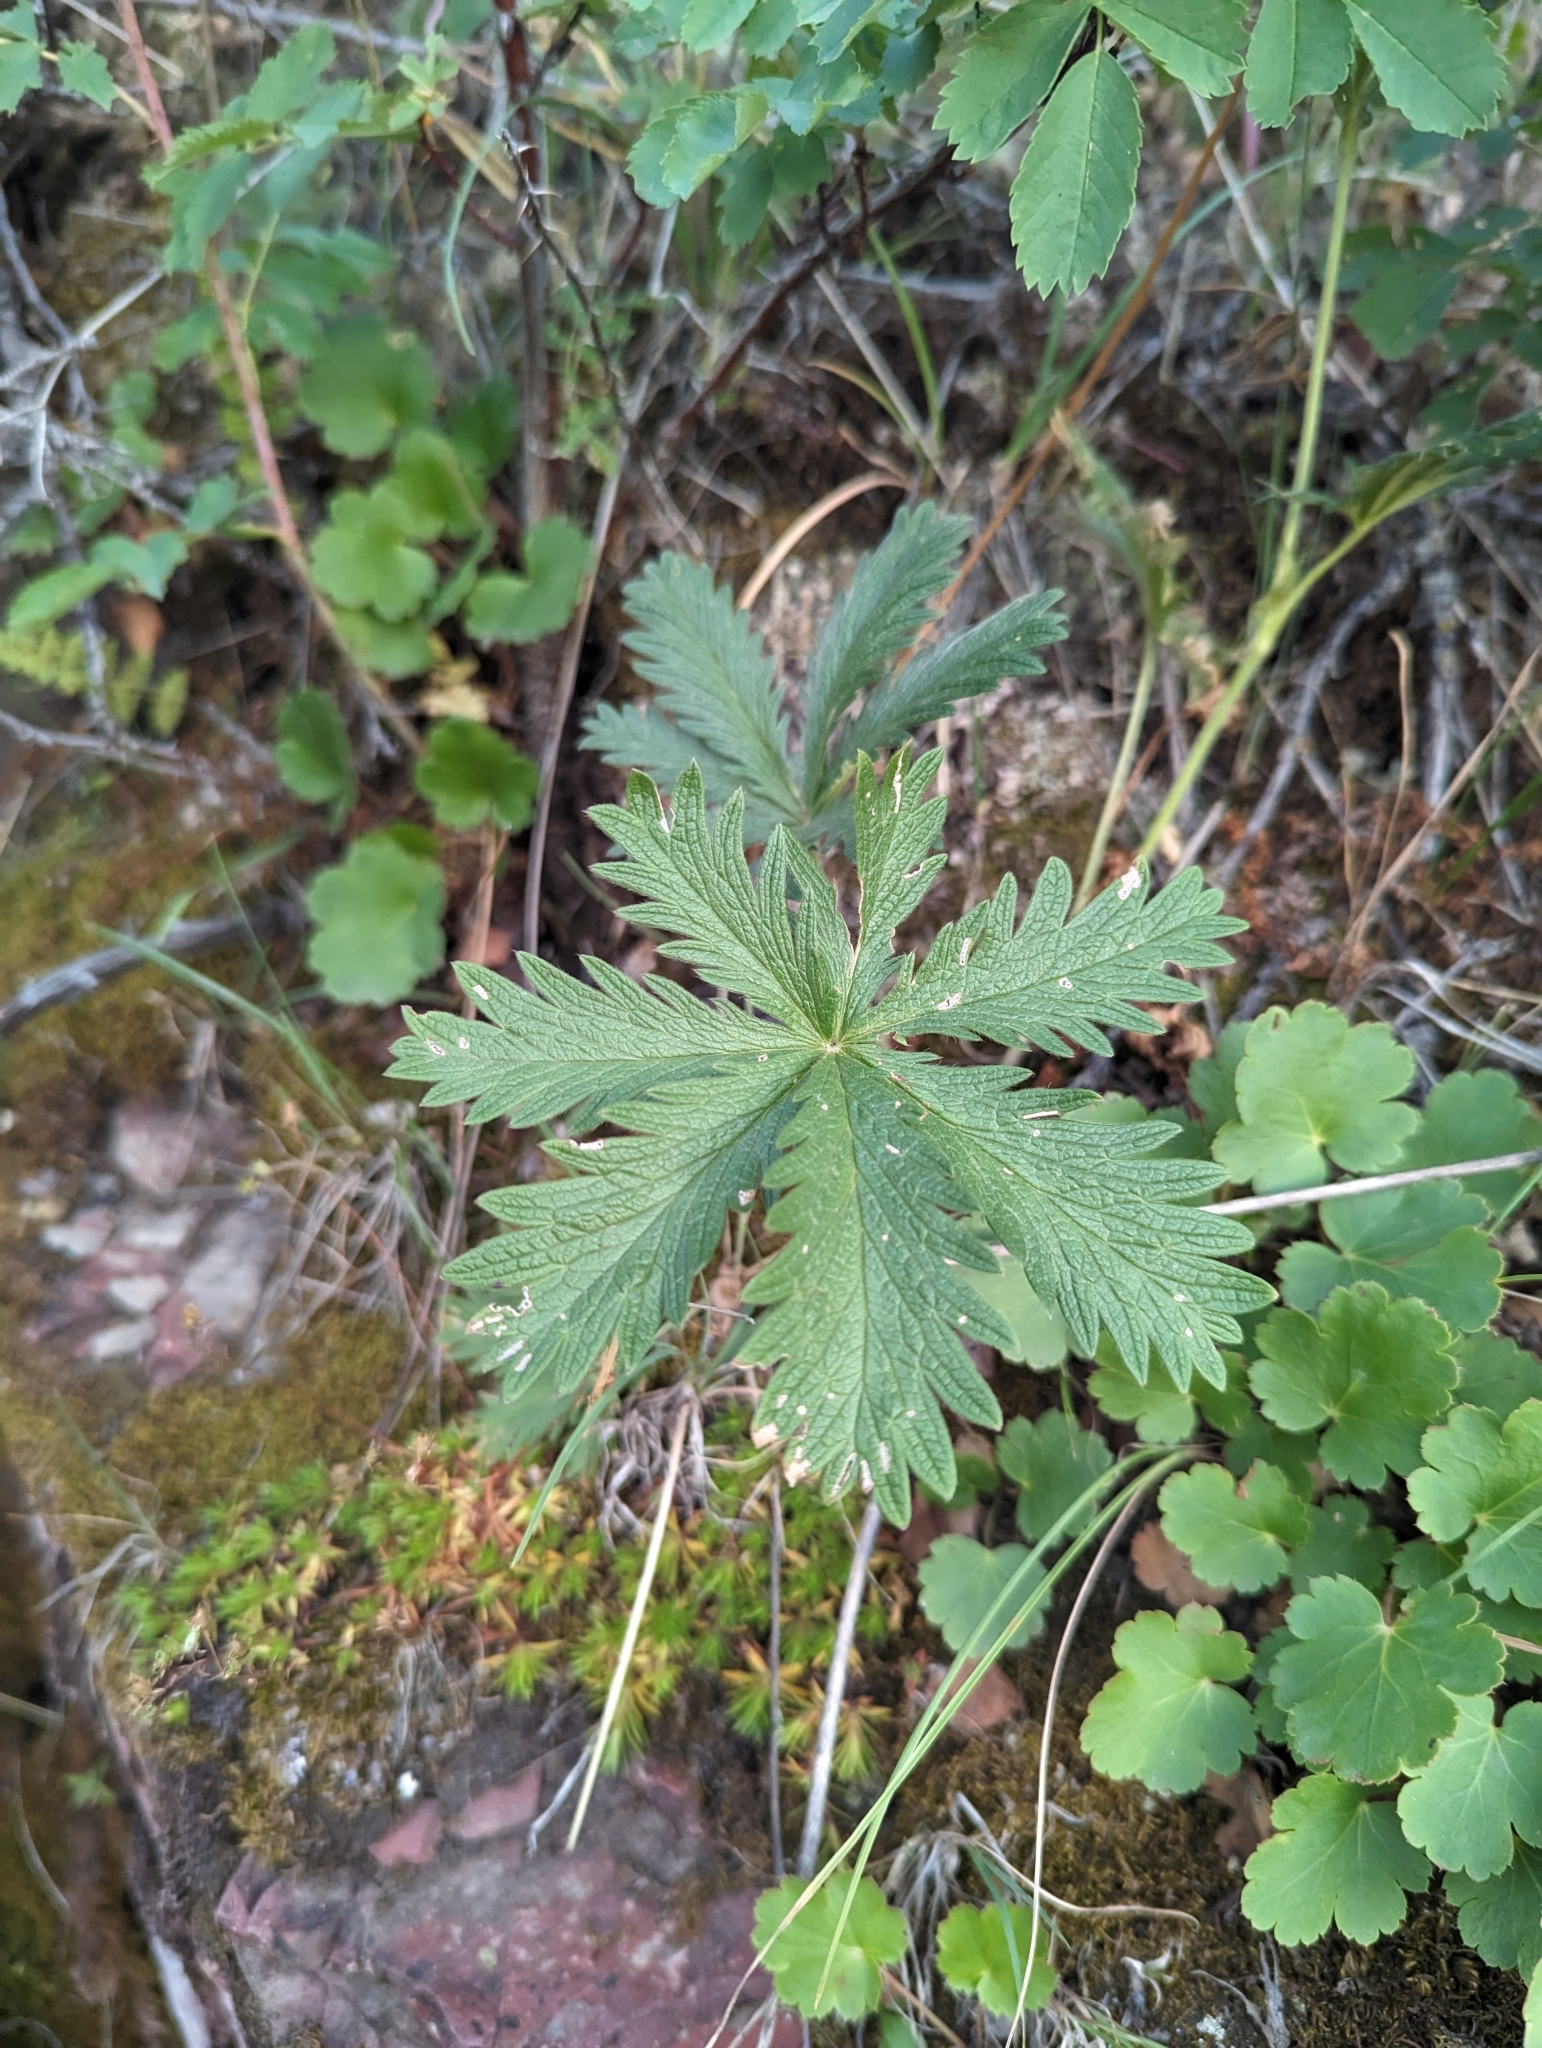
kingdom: Plantae
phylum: Tracheophyta
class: Magnoliopsida
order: Rosales
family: Rosaceae
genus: Potentilla
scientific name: Potentilla gracilis
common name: Graceful cinquefoil
